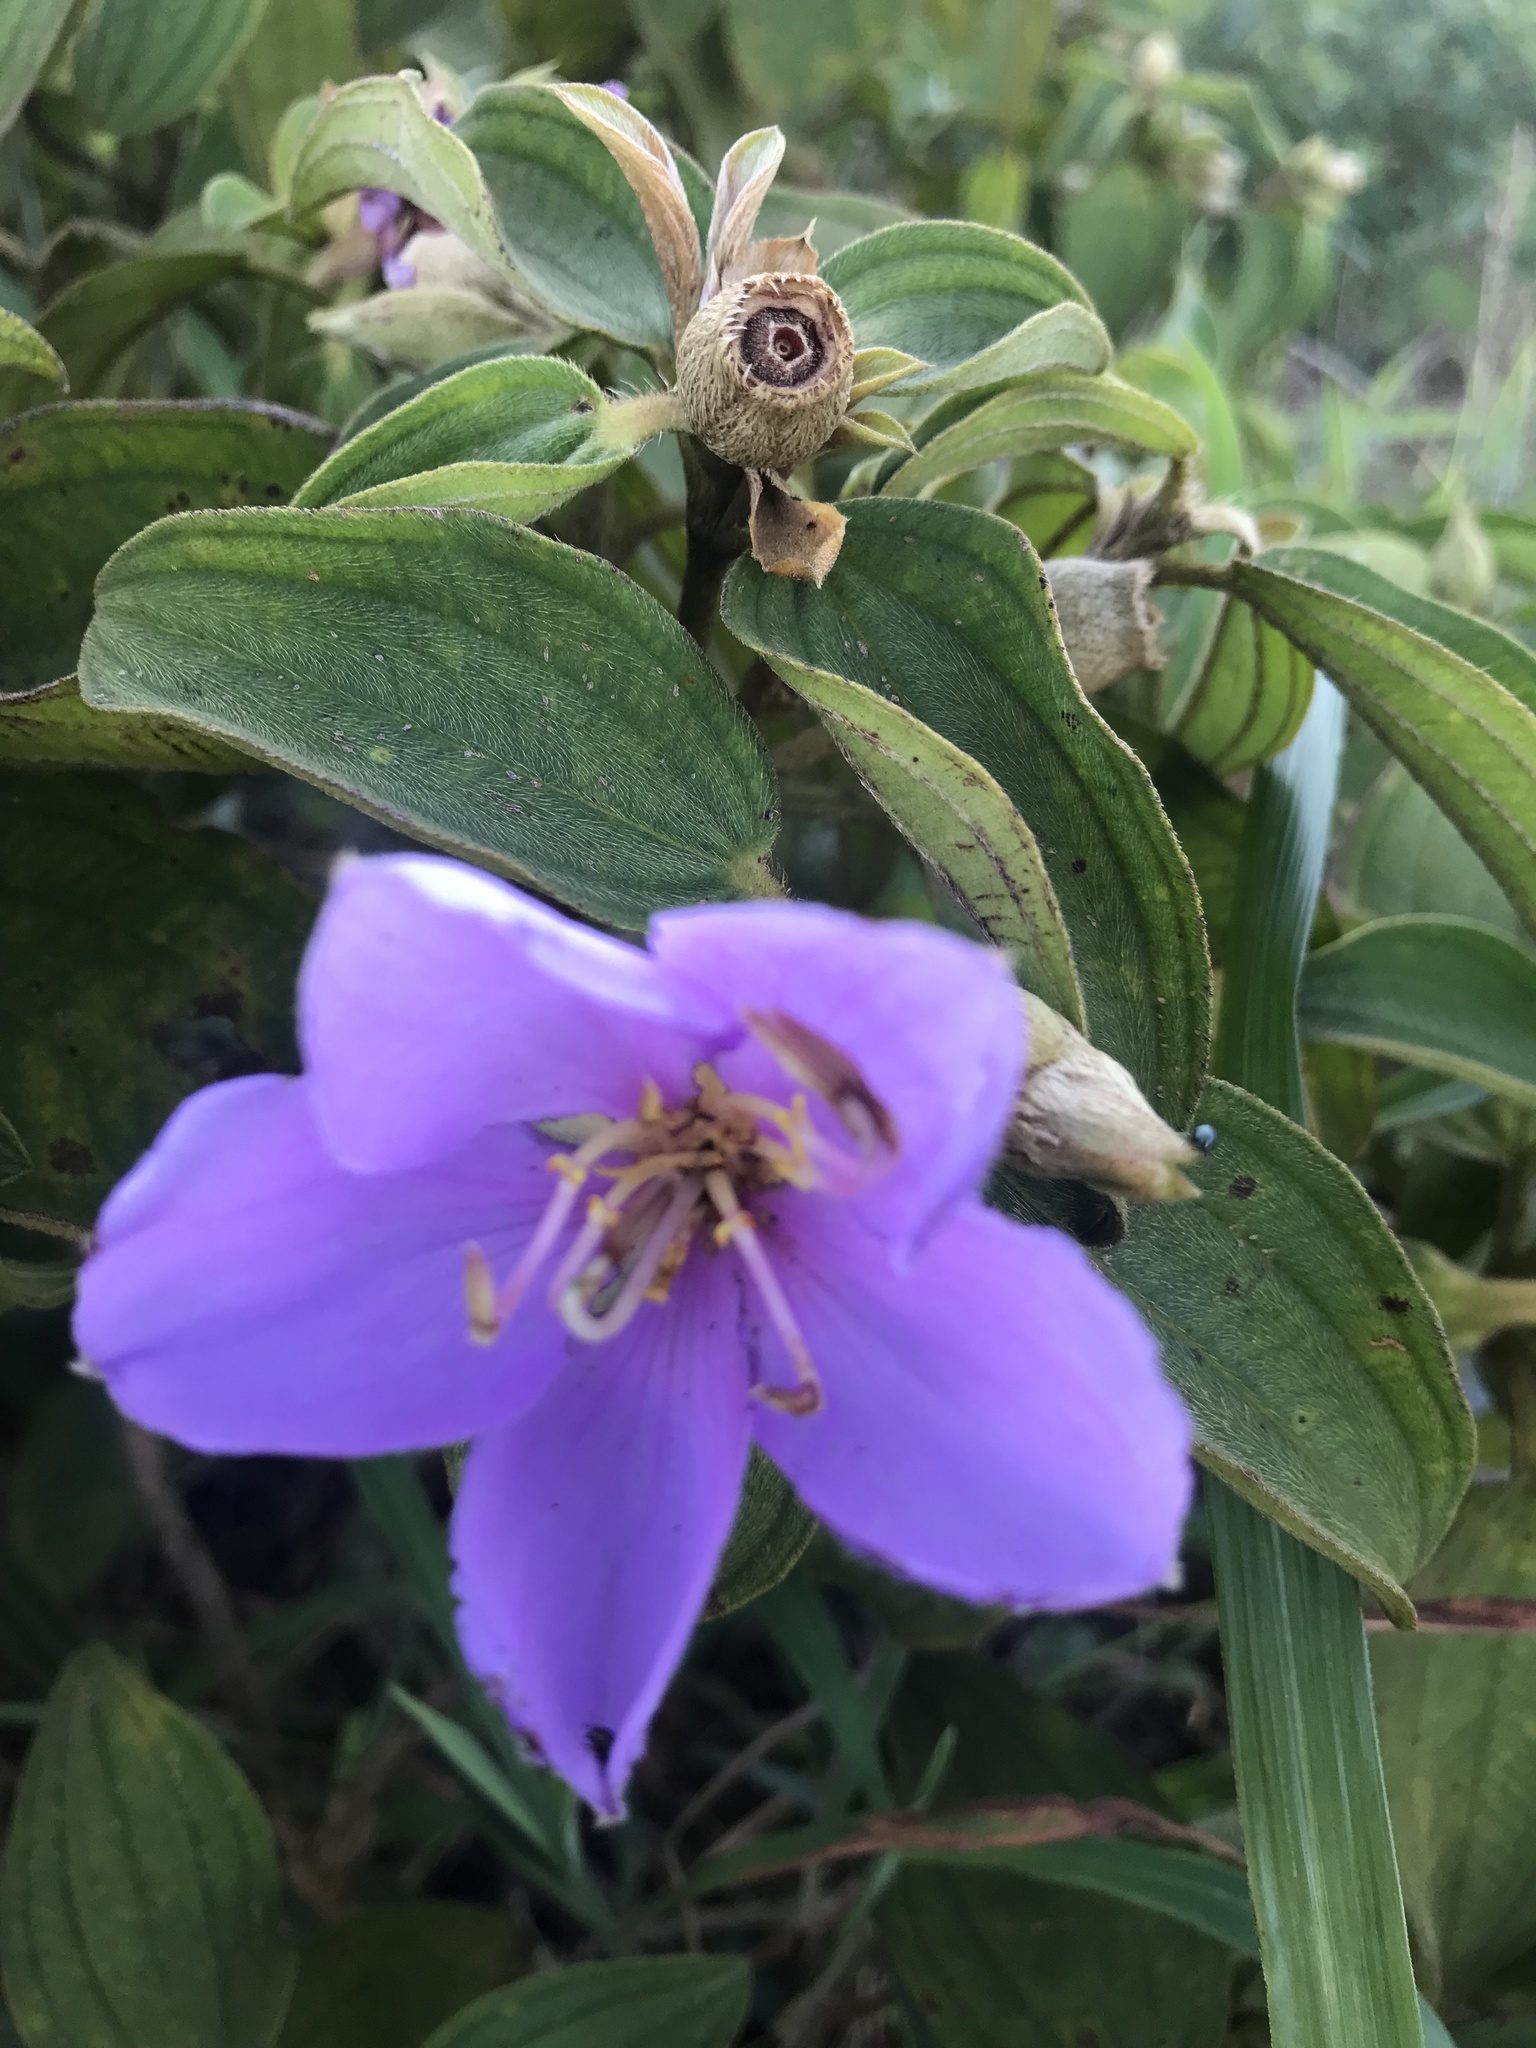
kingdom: Plantae
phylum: Tracheophyta
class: Magnoliopsida
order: Myrtales
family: Melastomataceae
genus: Melastoma
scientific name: Melastoma malabathricum
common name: Indian-rhododendron
